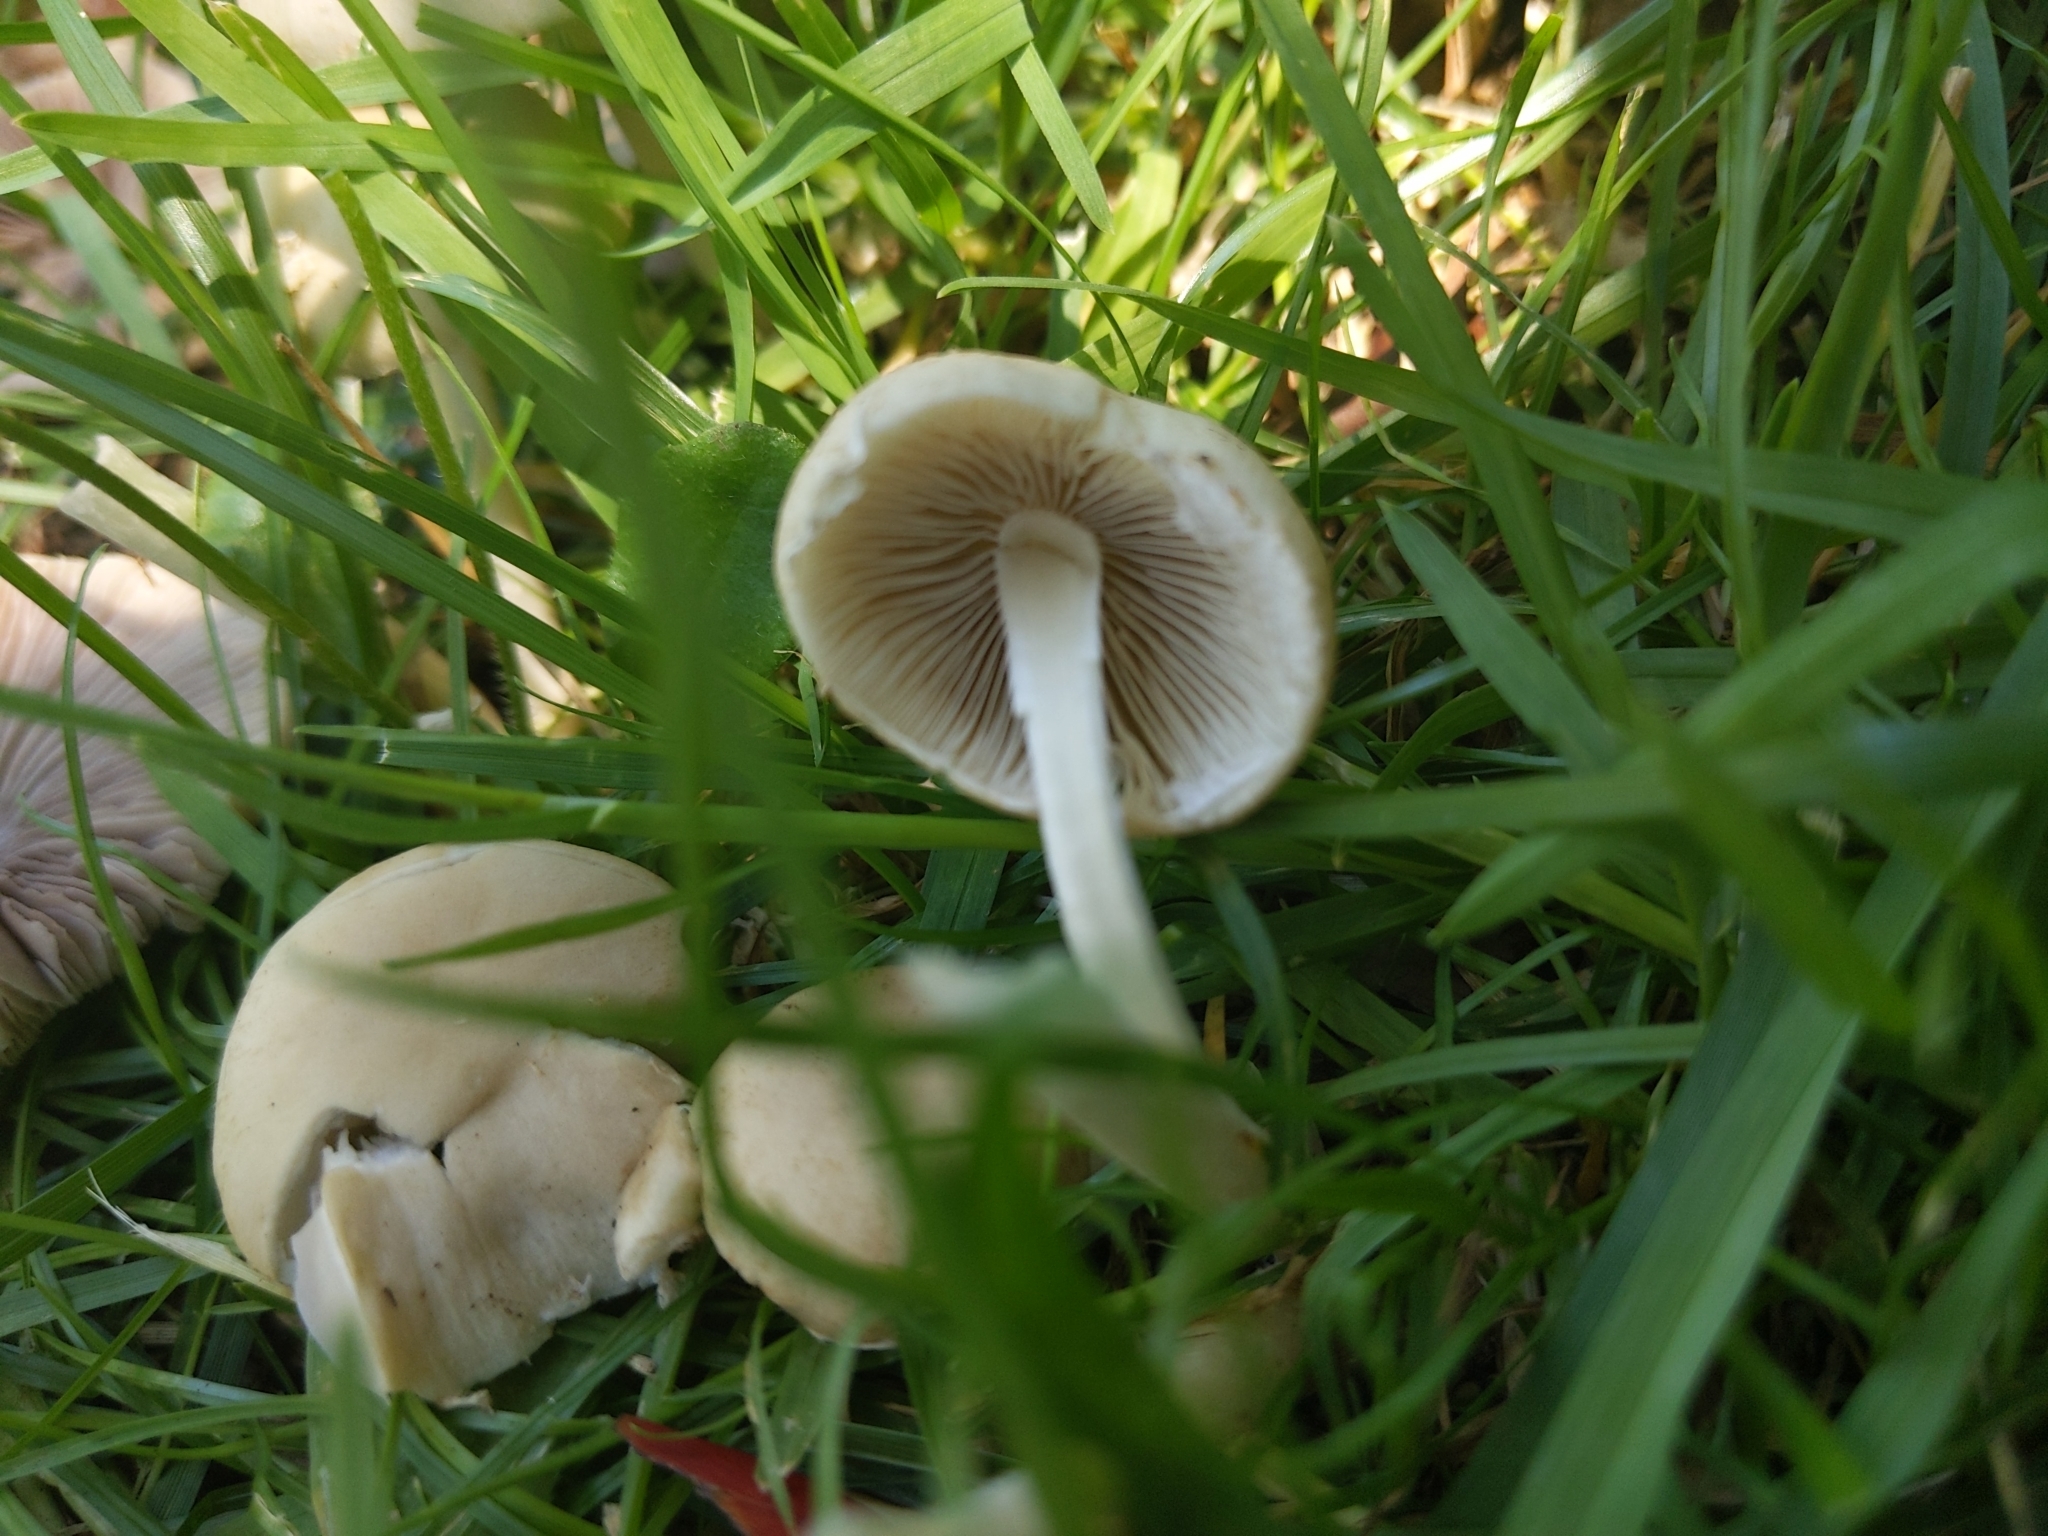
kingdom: Fungi
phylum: Basidiomycota
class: Agaricomycetes
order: Agaricales
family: Psathyrellaceae
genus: Candolleomyces
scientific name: Candolleomyces candolleanus
